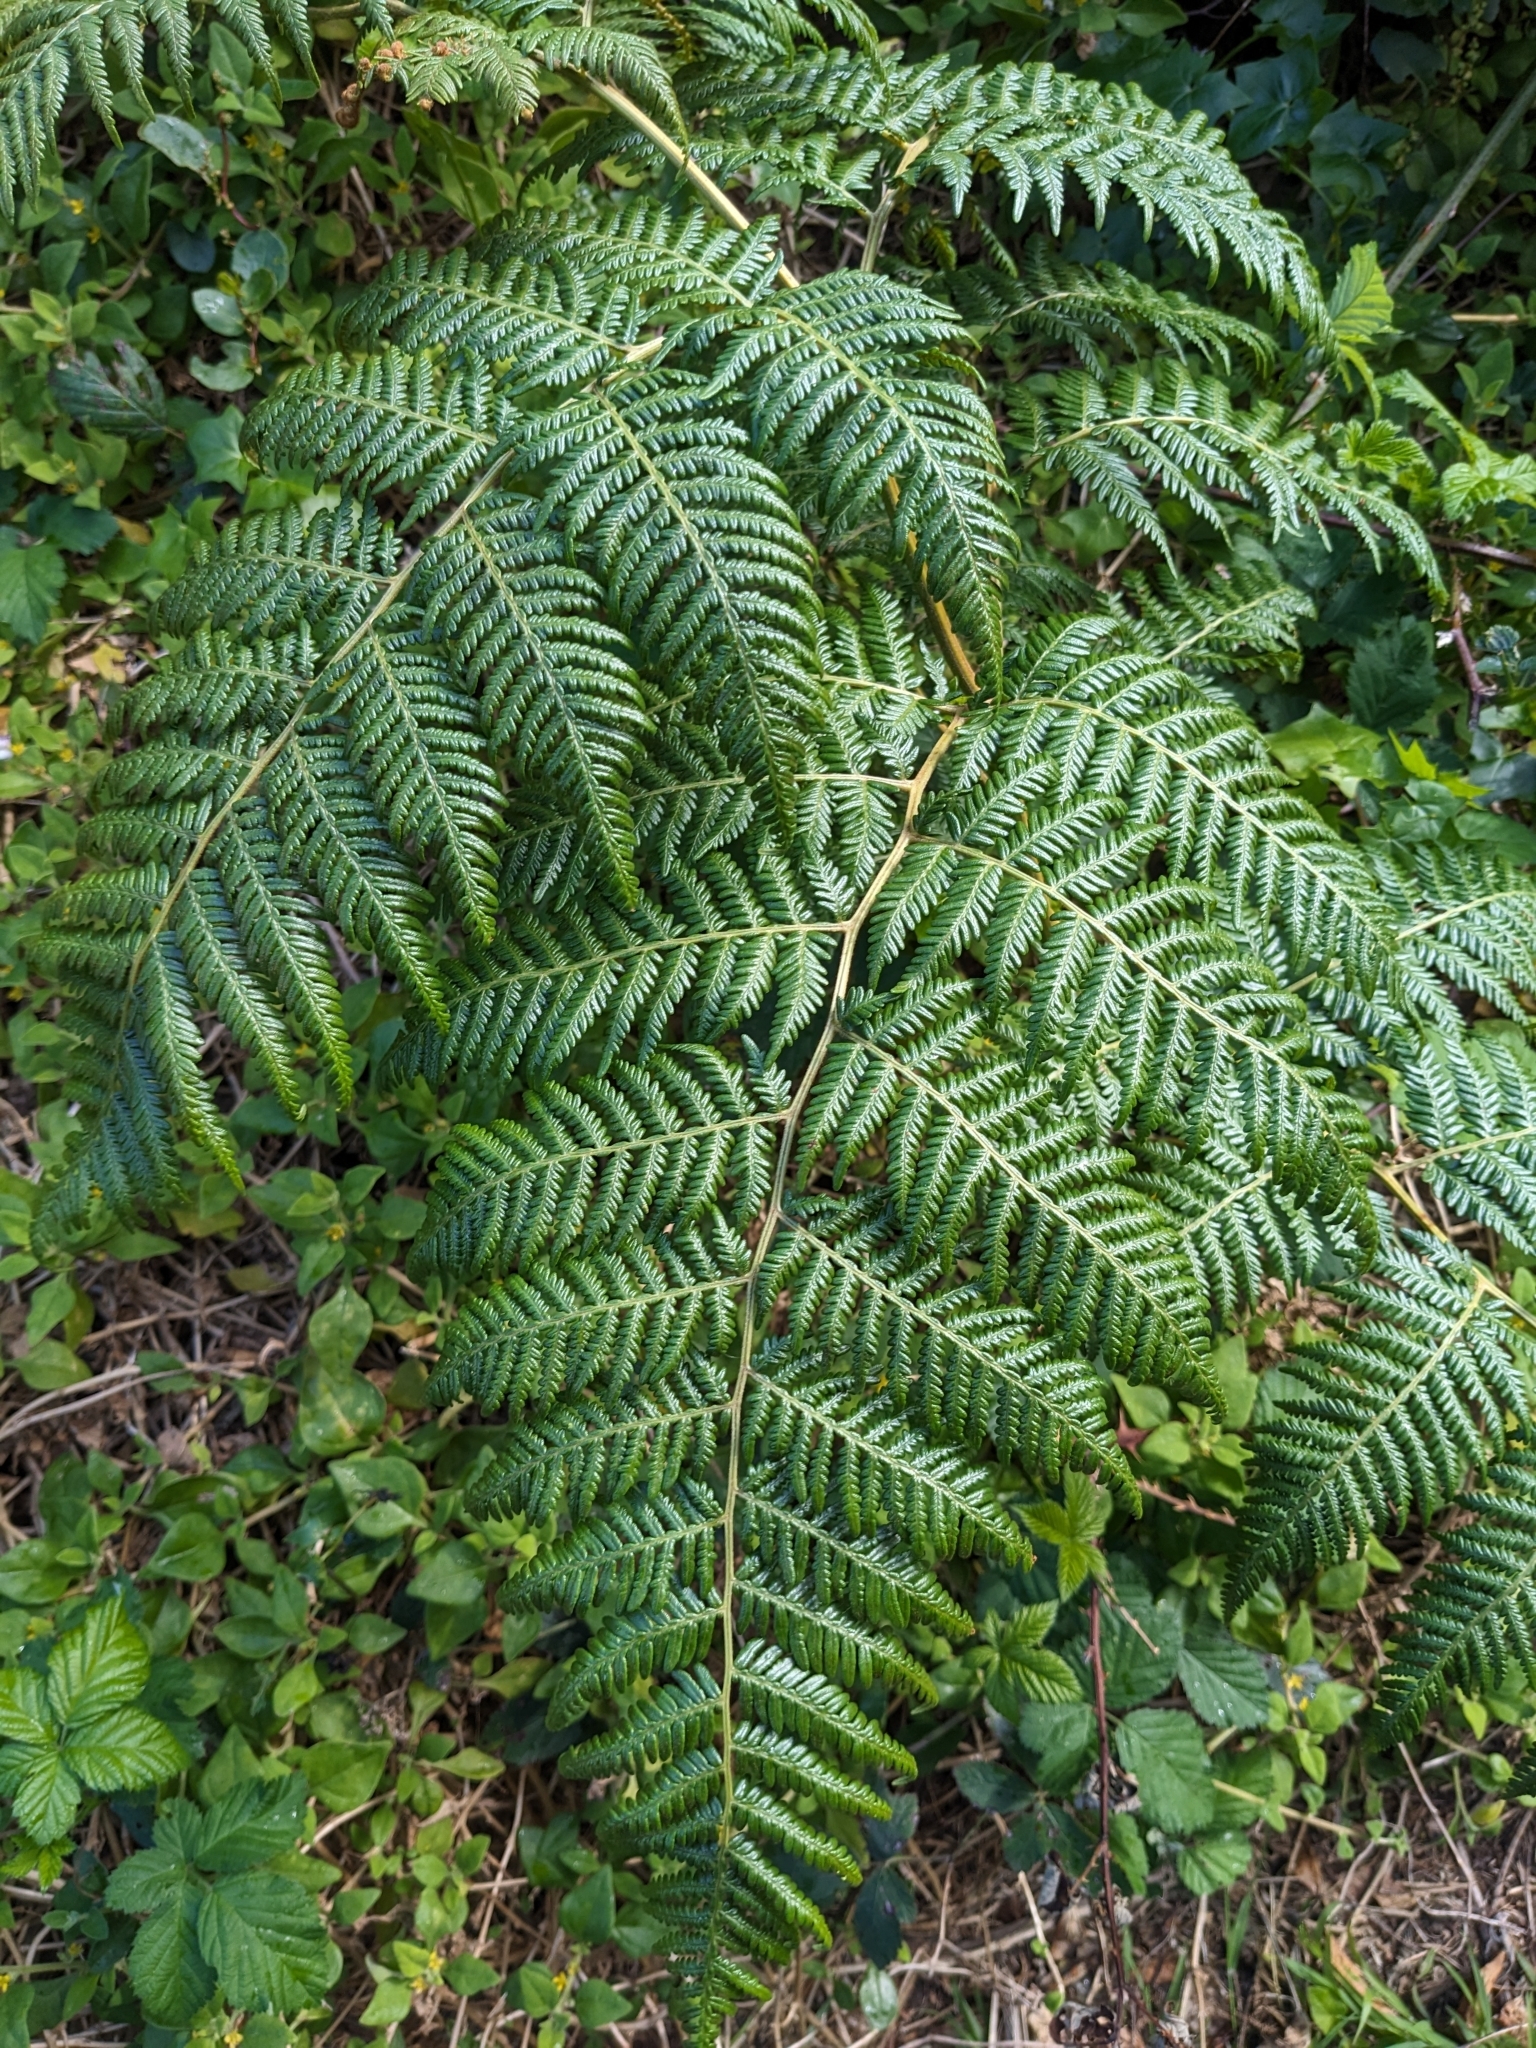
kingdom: Plantae
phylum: Tracheophyta
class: Polypodiopsida
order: Polypodiales
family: Dennstaedtiaceae
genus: Pteridium
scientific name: Pteridium esculentum
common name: Bracken fern
